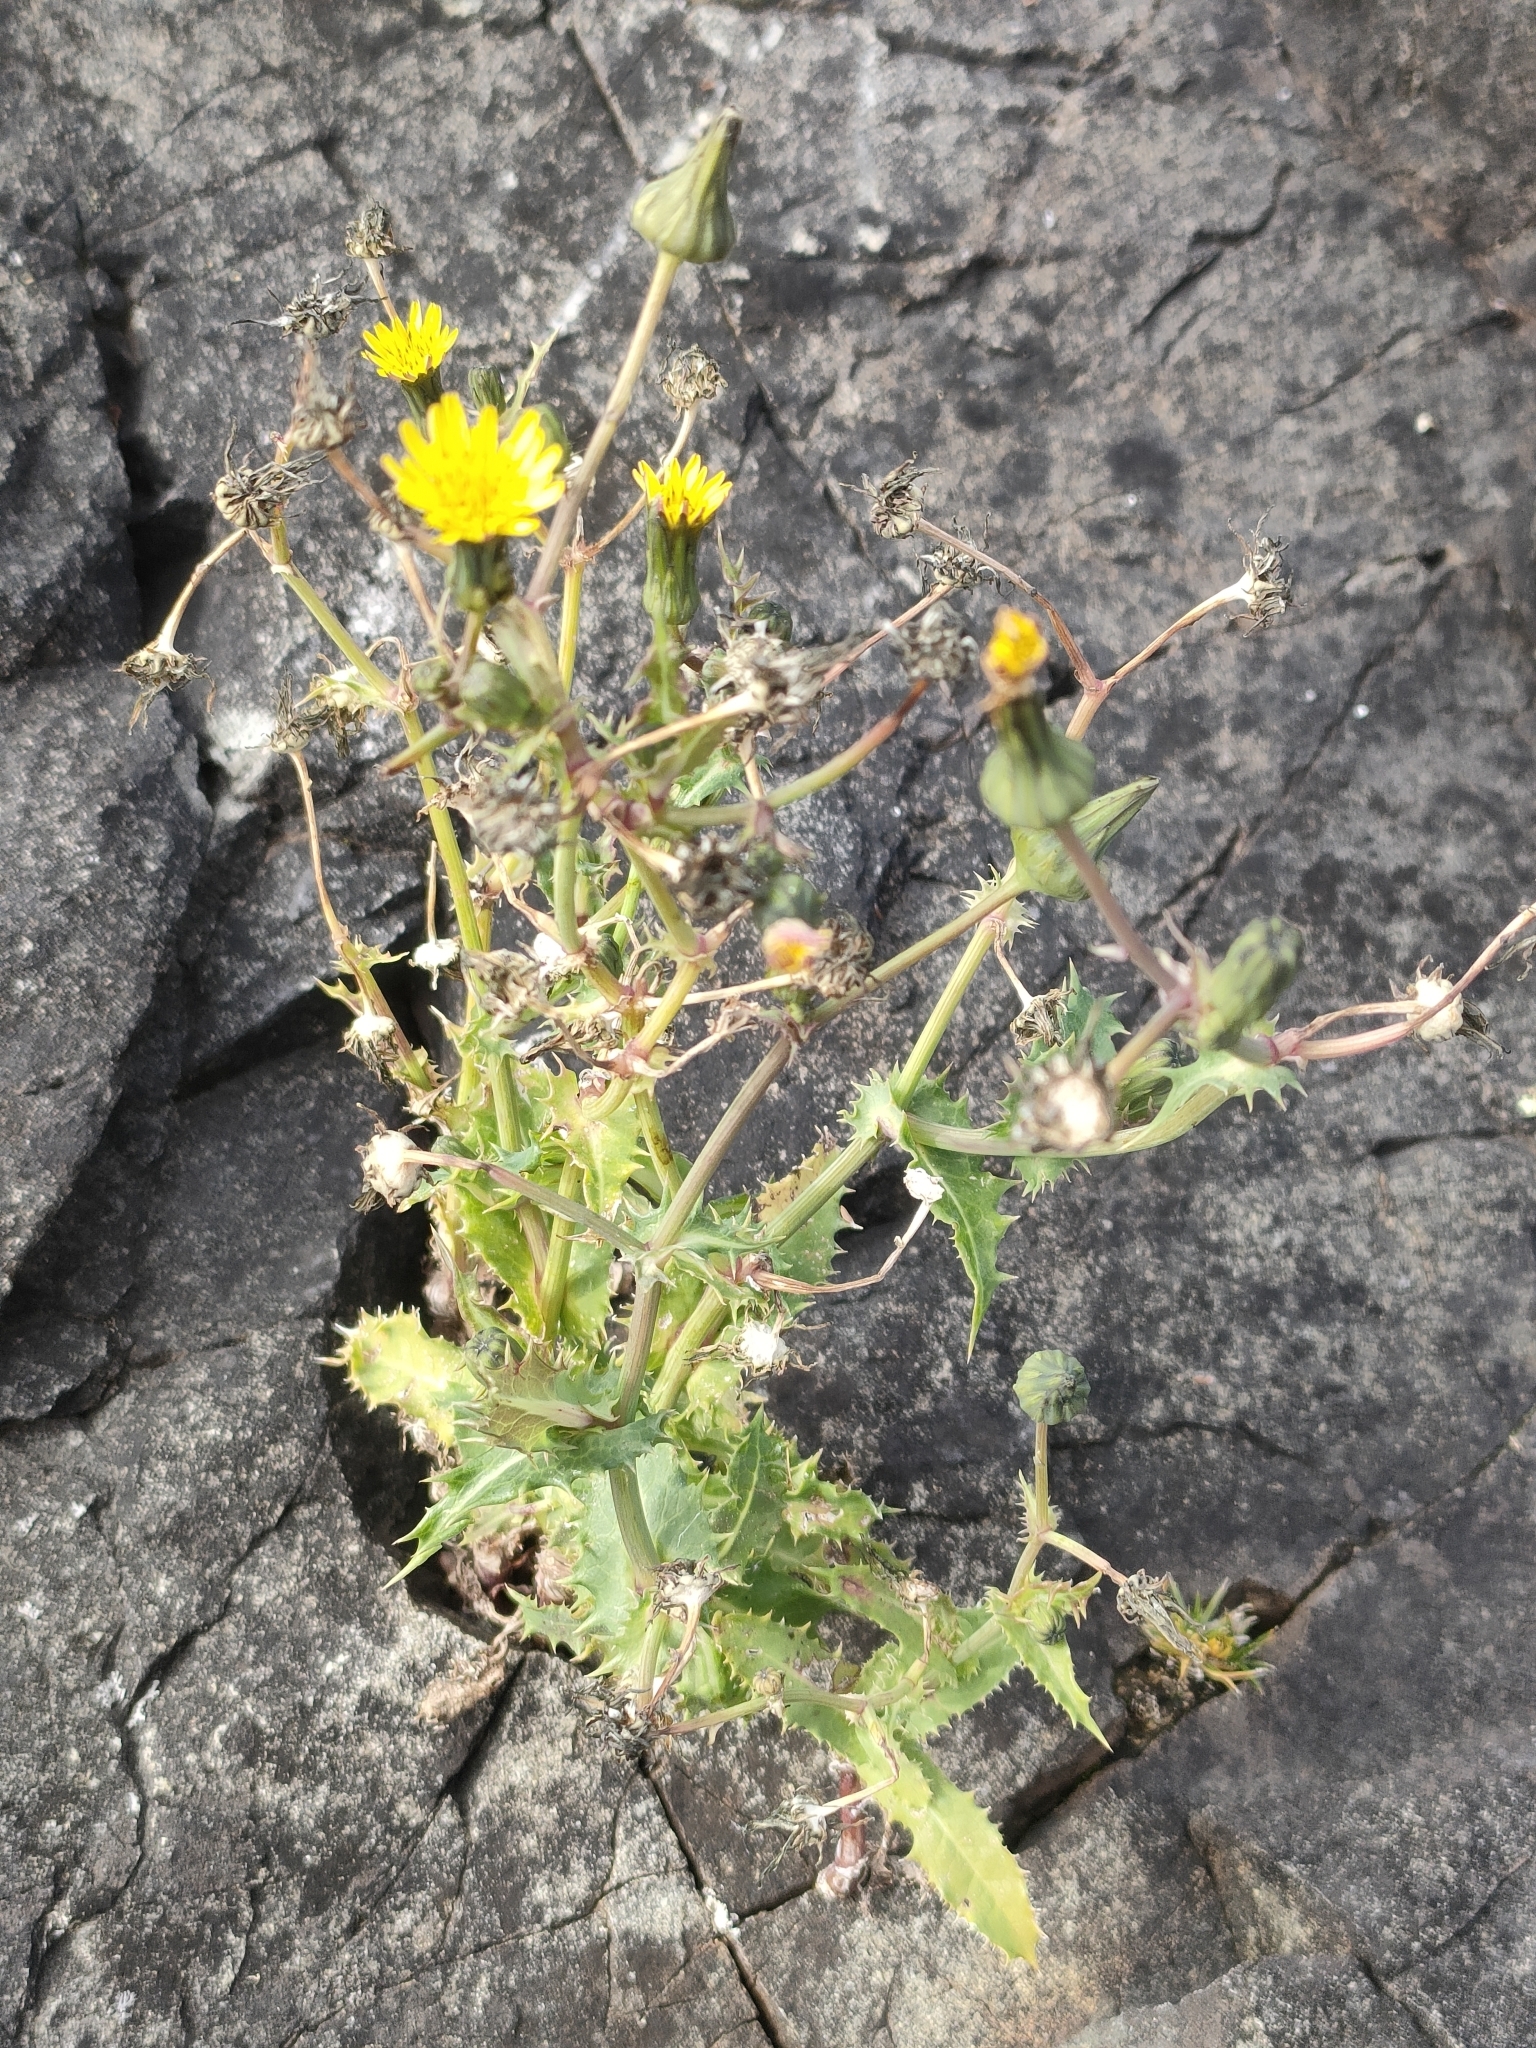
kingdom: Plantae
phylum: Tracheophyta
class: Magnoliopsida
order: Asterales
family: Asteraceae
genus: Sonchus
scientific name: Sonchus asper
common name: Prickly sow-thistle
